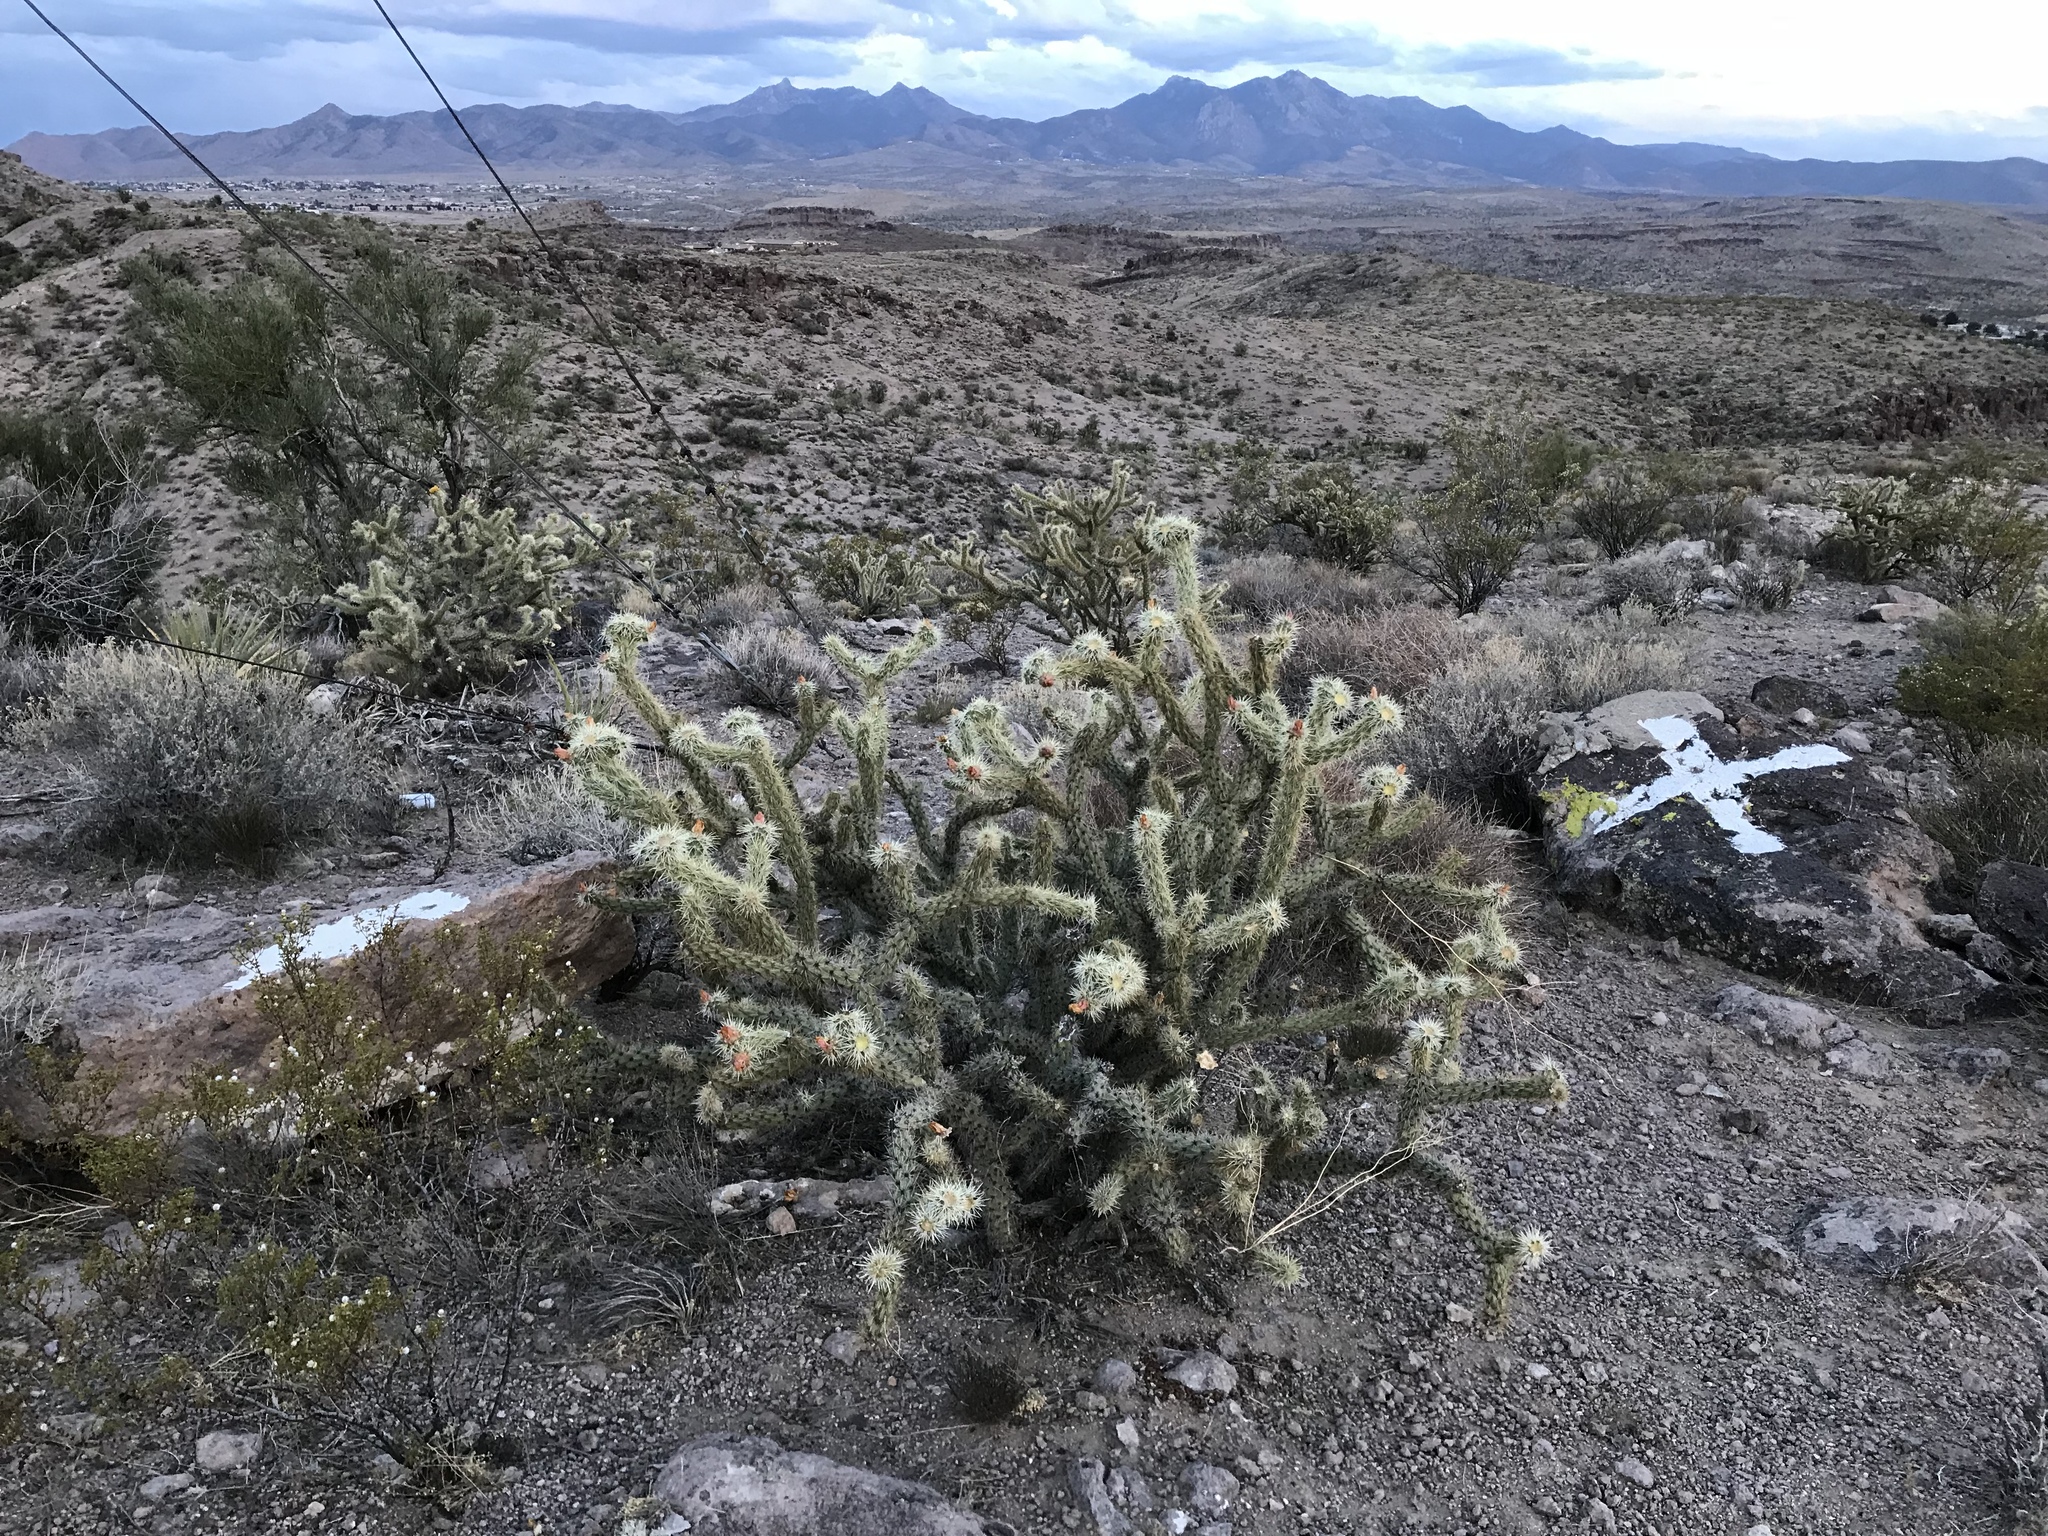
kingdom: Plantae
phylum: Tracheophyta
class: Magnoliopsida
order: Caryophyllales
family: Cactaceae
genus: Cylindropuntia
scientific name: Cylindropuntia acanthocarpa
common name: Buckhorn cholla
